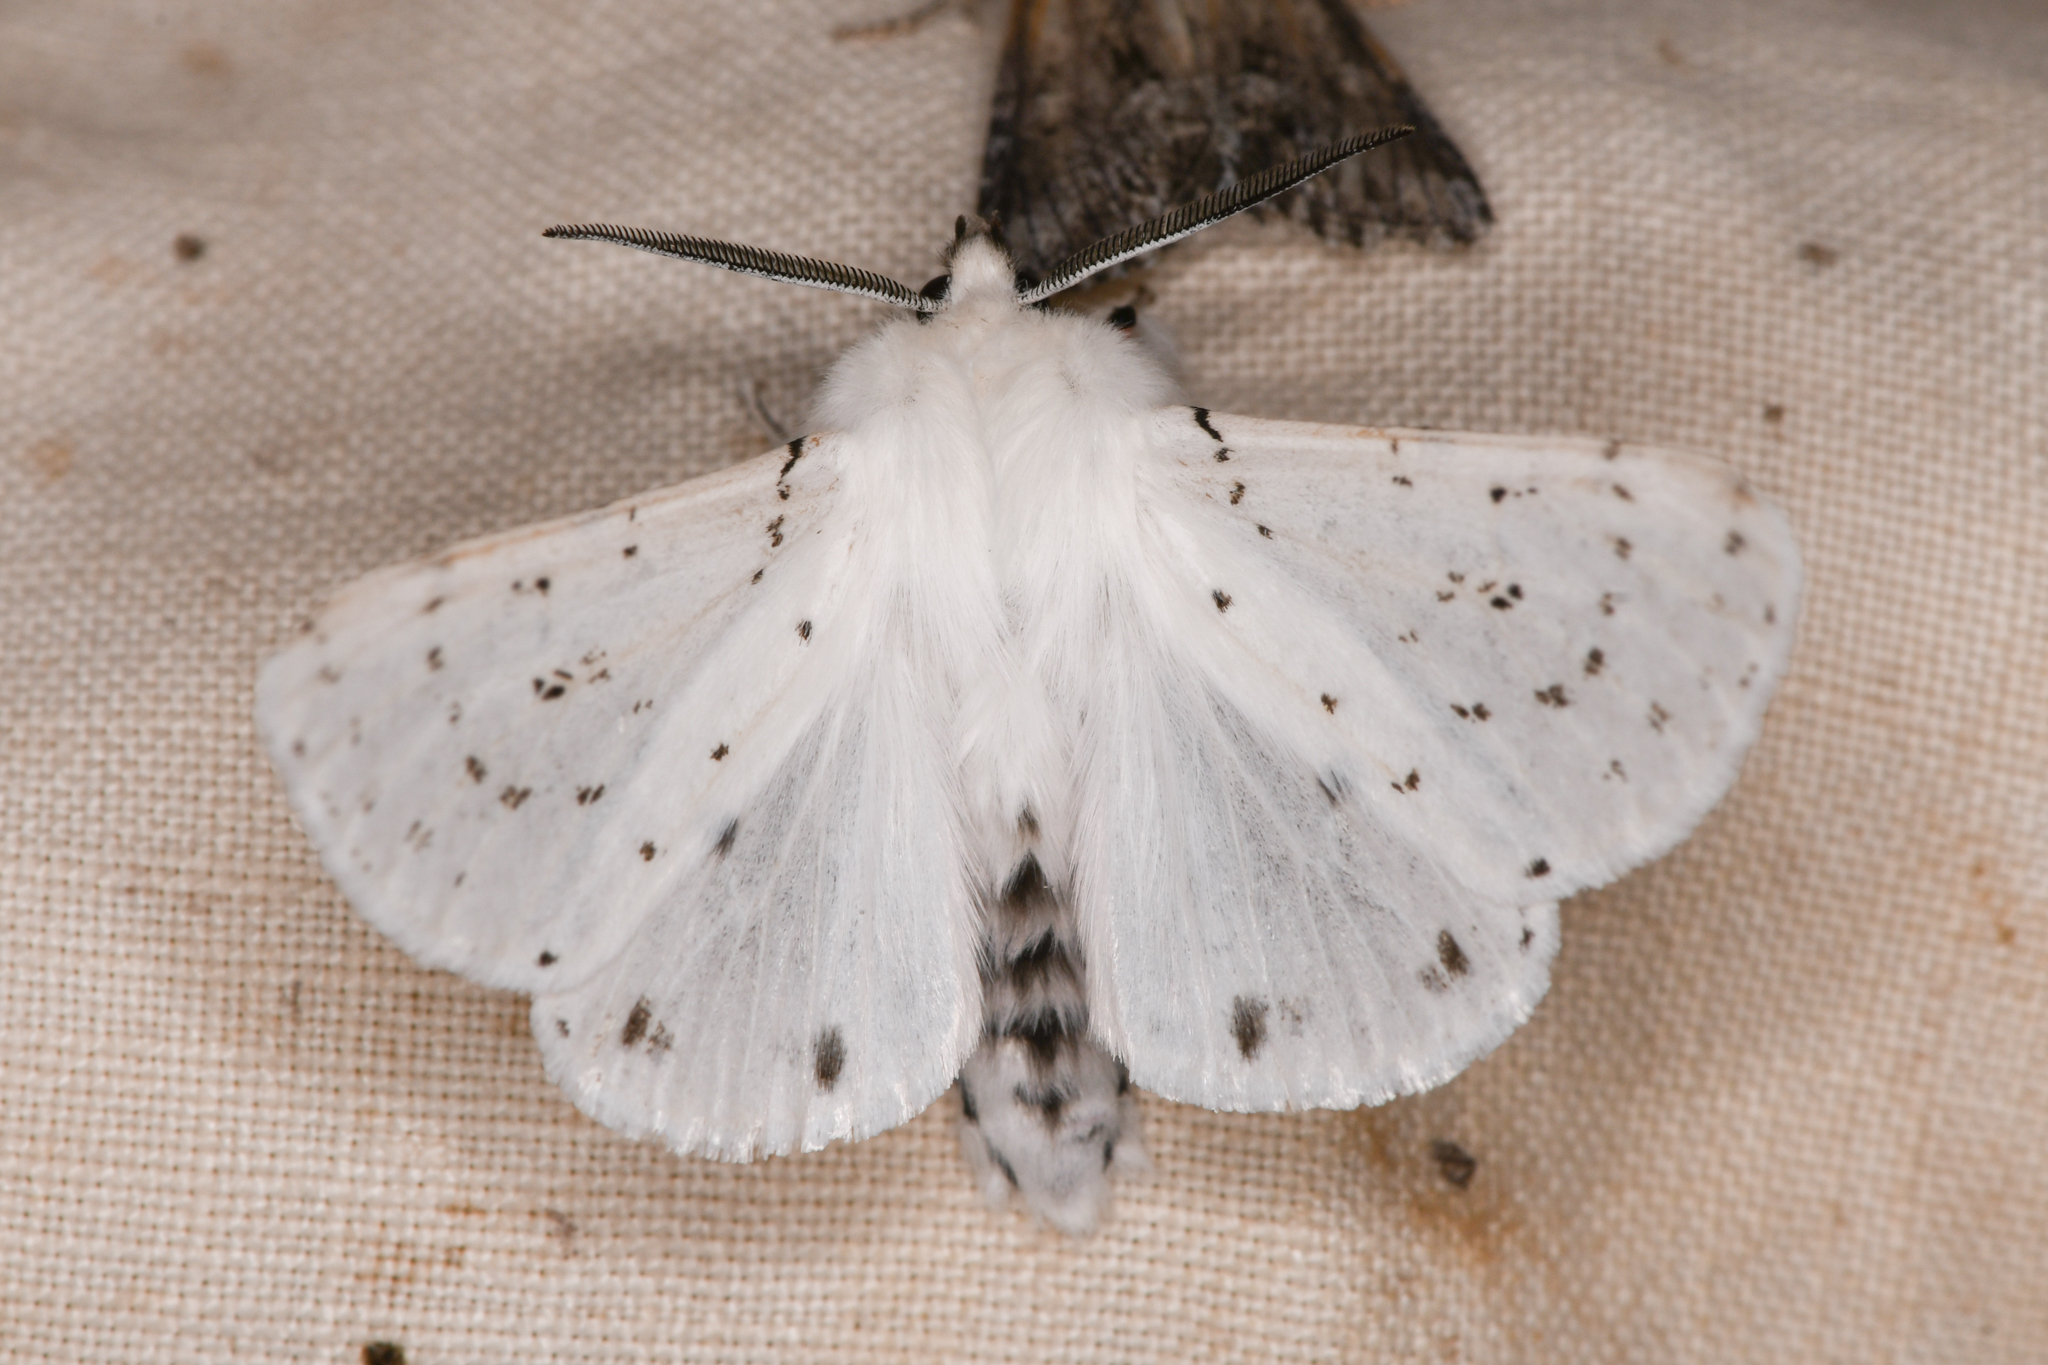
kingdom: Animalia
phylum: Arthropoda
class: Insecta
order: Lepidoptera
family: Erebidae
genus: Spilosoma
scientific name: Spilosoma vestalis
